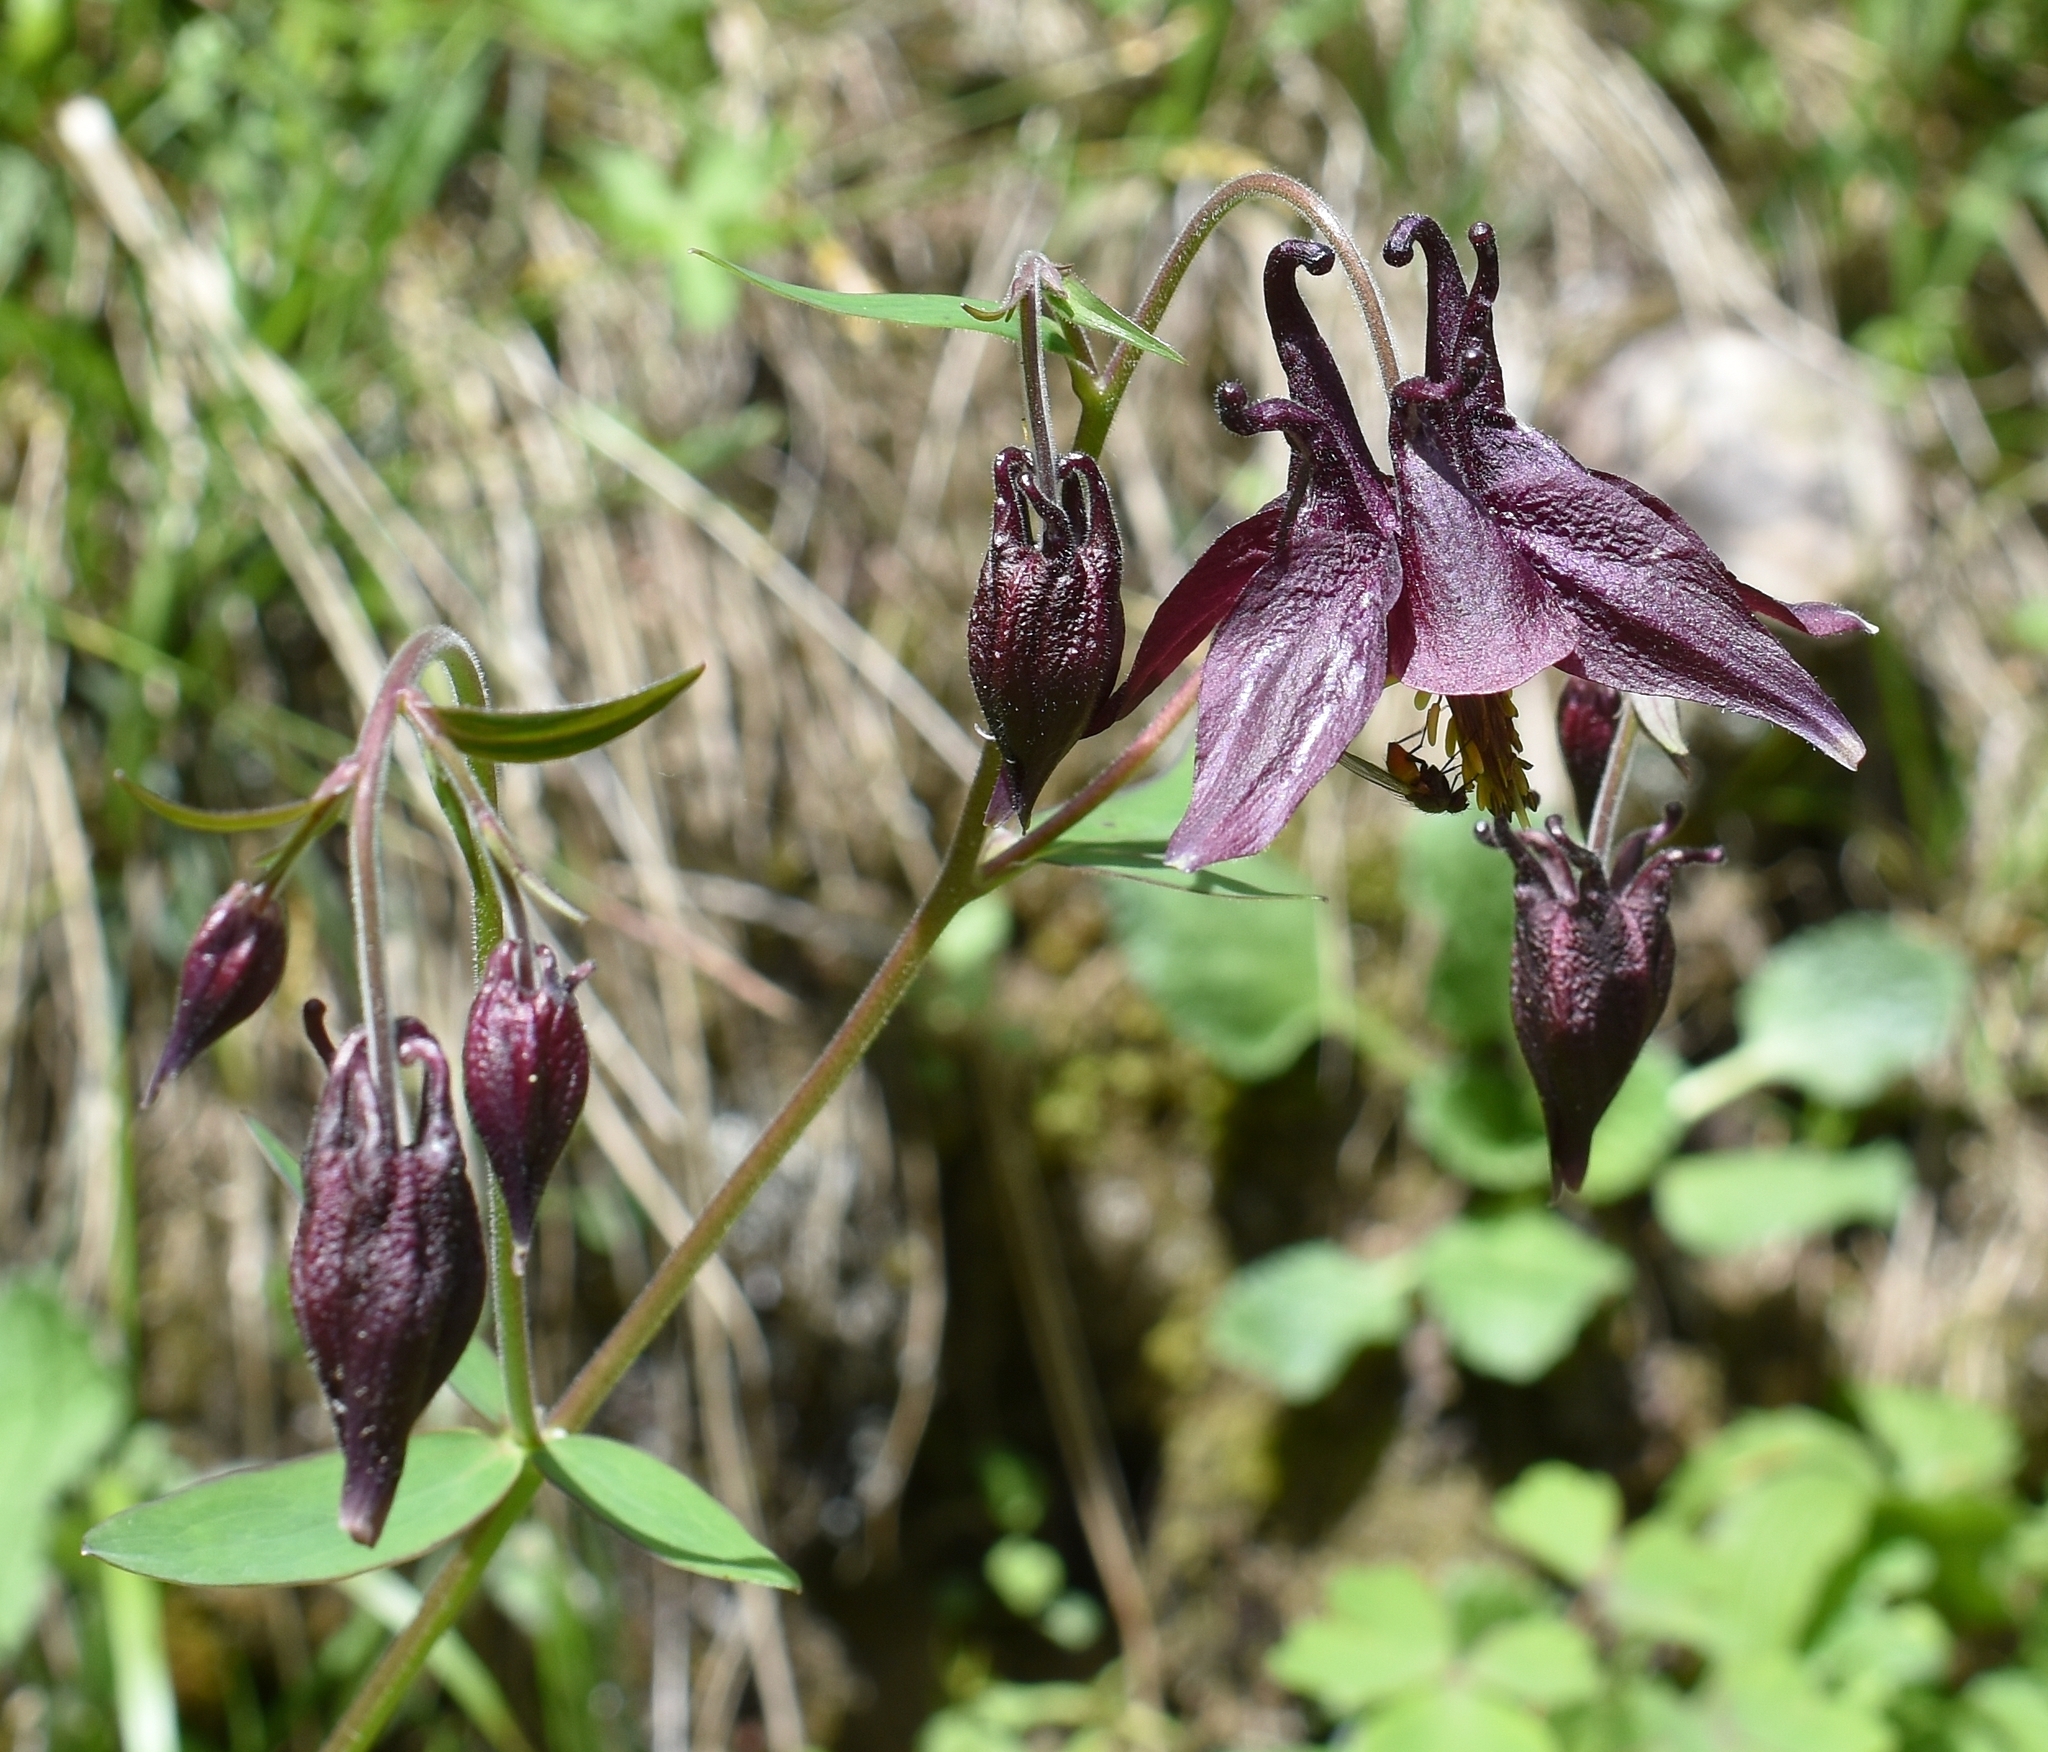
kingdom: Plantae
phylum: Tracheophyta
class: Magnoliopsida
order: Ranunculales
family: Ranunculaceae
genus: Aquilegia
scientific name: Aquilegia atrata
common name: Dark columbine
